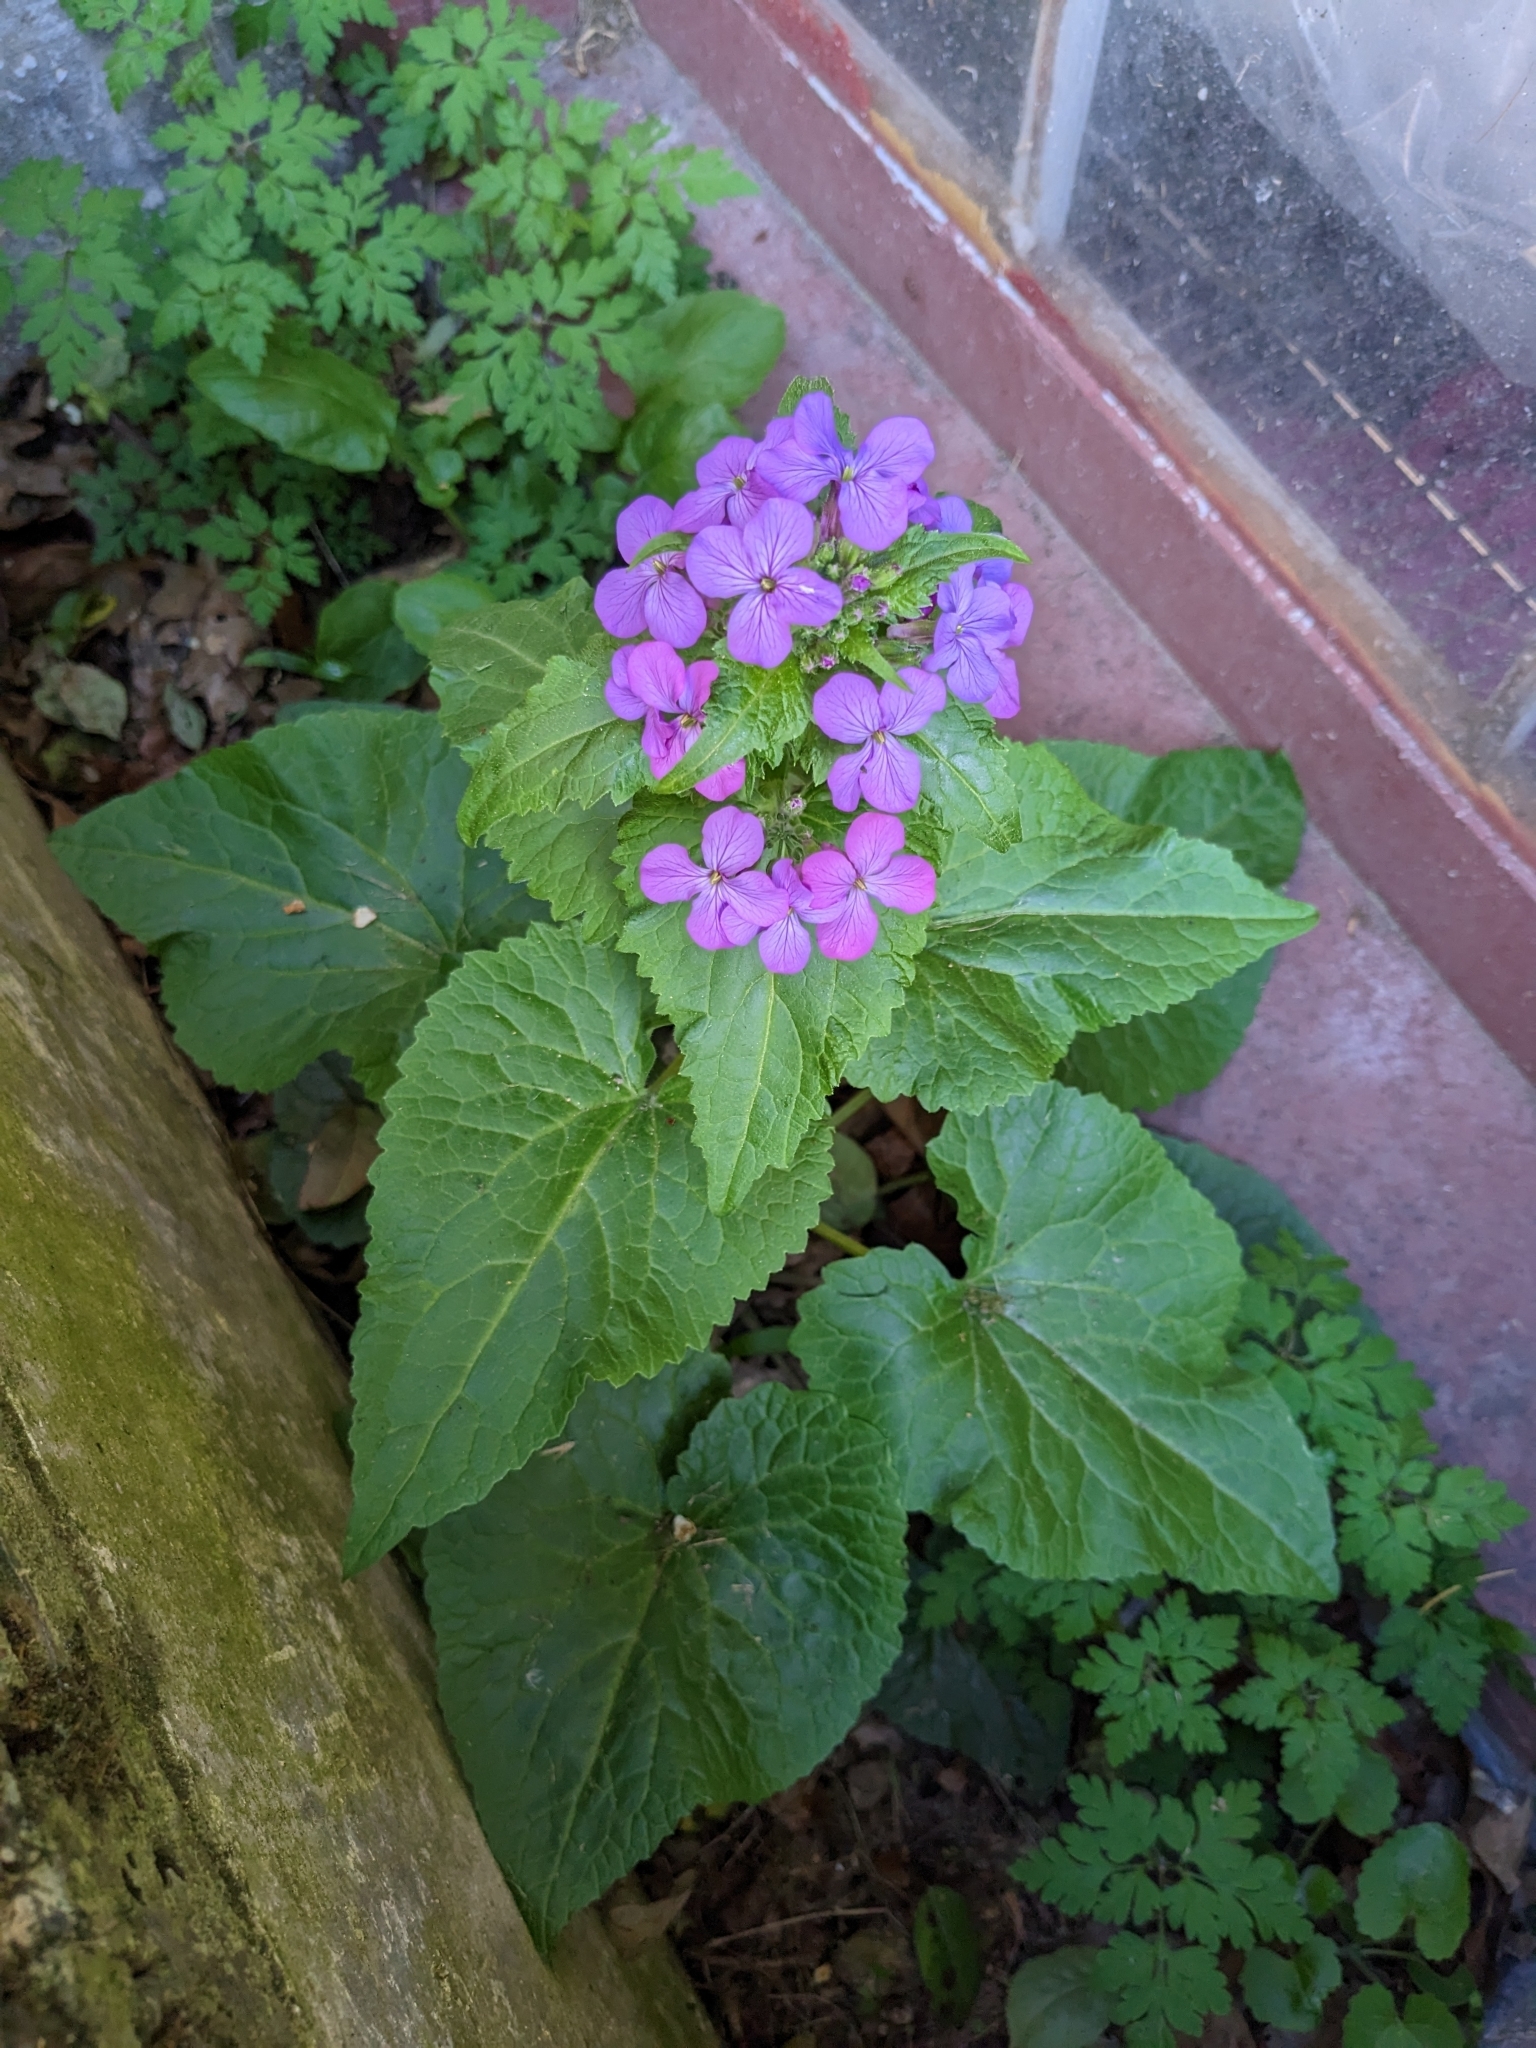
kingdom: Plantae
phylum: Tracheophyta
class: Magnoliopsida
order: Brassicales
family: Brassicaceae
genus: Lunaria
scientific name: Lunaria annua
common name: Honesty
